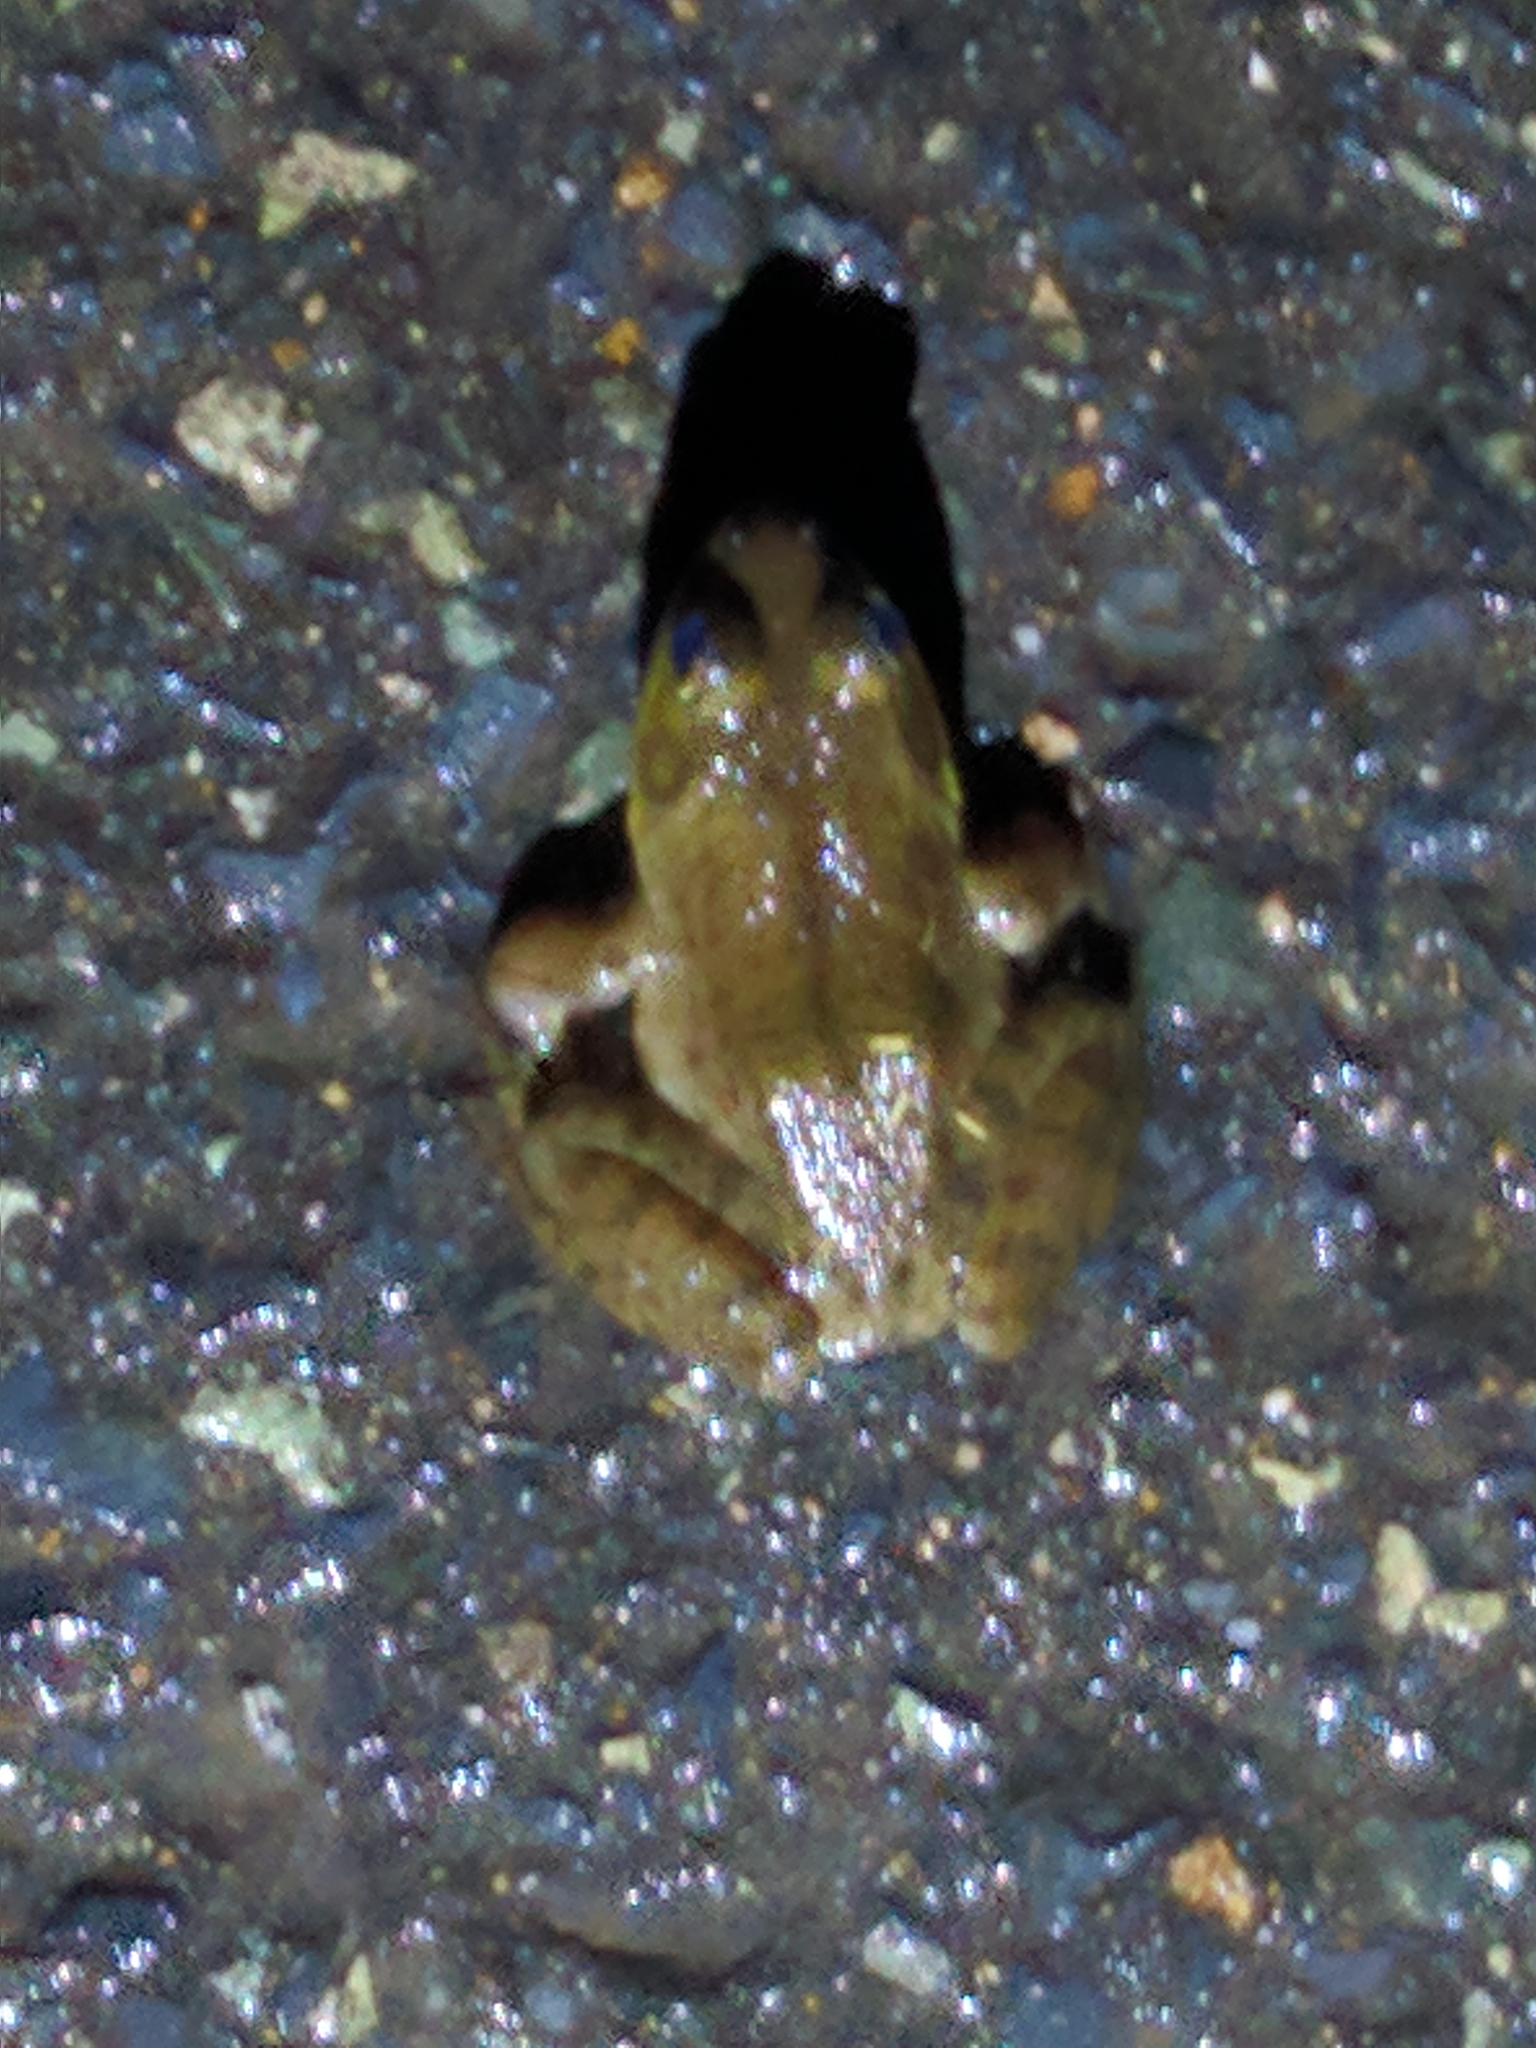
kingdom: Animalia
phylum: Chordata
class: Amphibia
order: Anura
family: Ranidae
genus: Lithobates
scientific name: Lithobates catesbeianus
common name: American bullfrog
